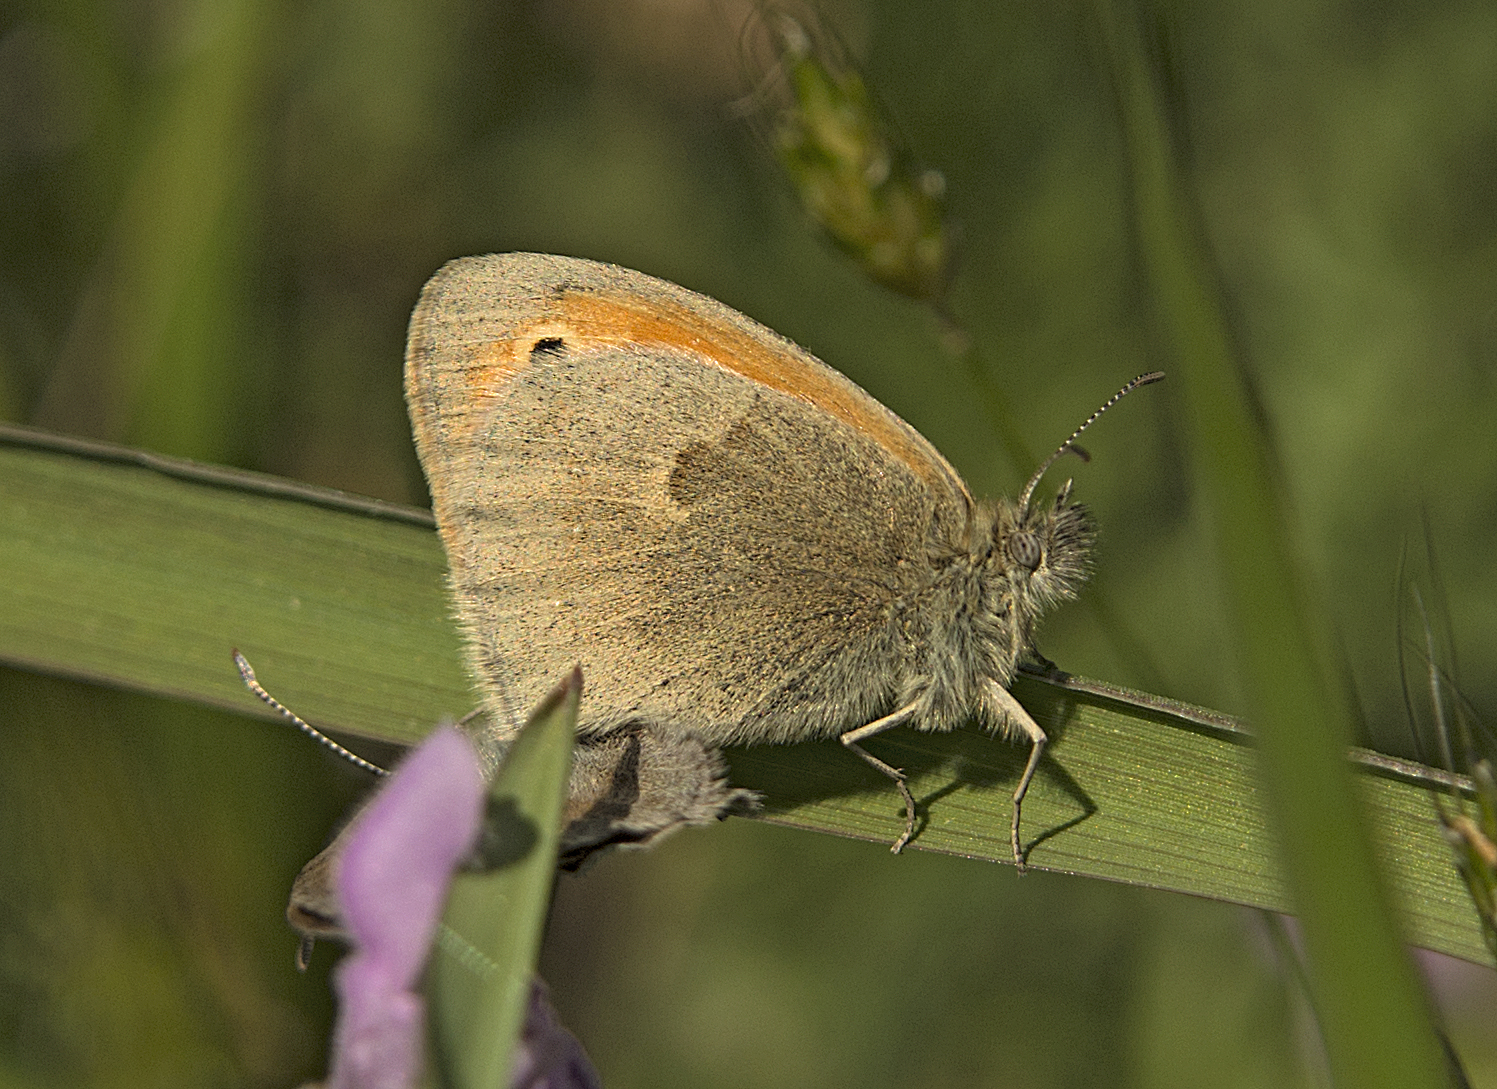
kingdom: Animalia
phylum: Arthropoda
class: Insecta
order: Lepidoptera
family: Nymphalidae
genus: Coenonympha
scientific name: Coenonympha pamphilus
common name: Small heath
